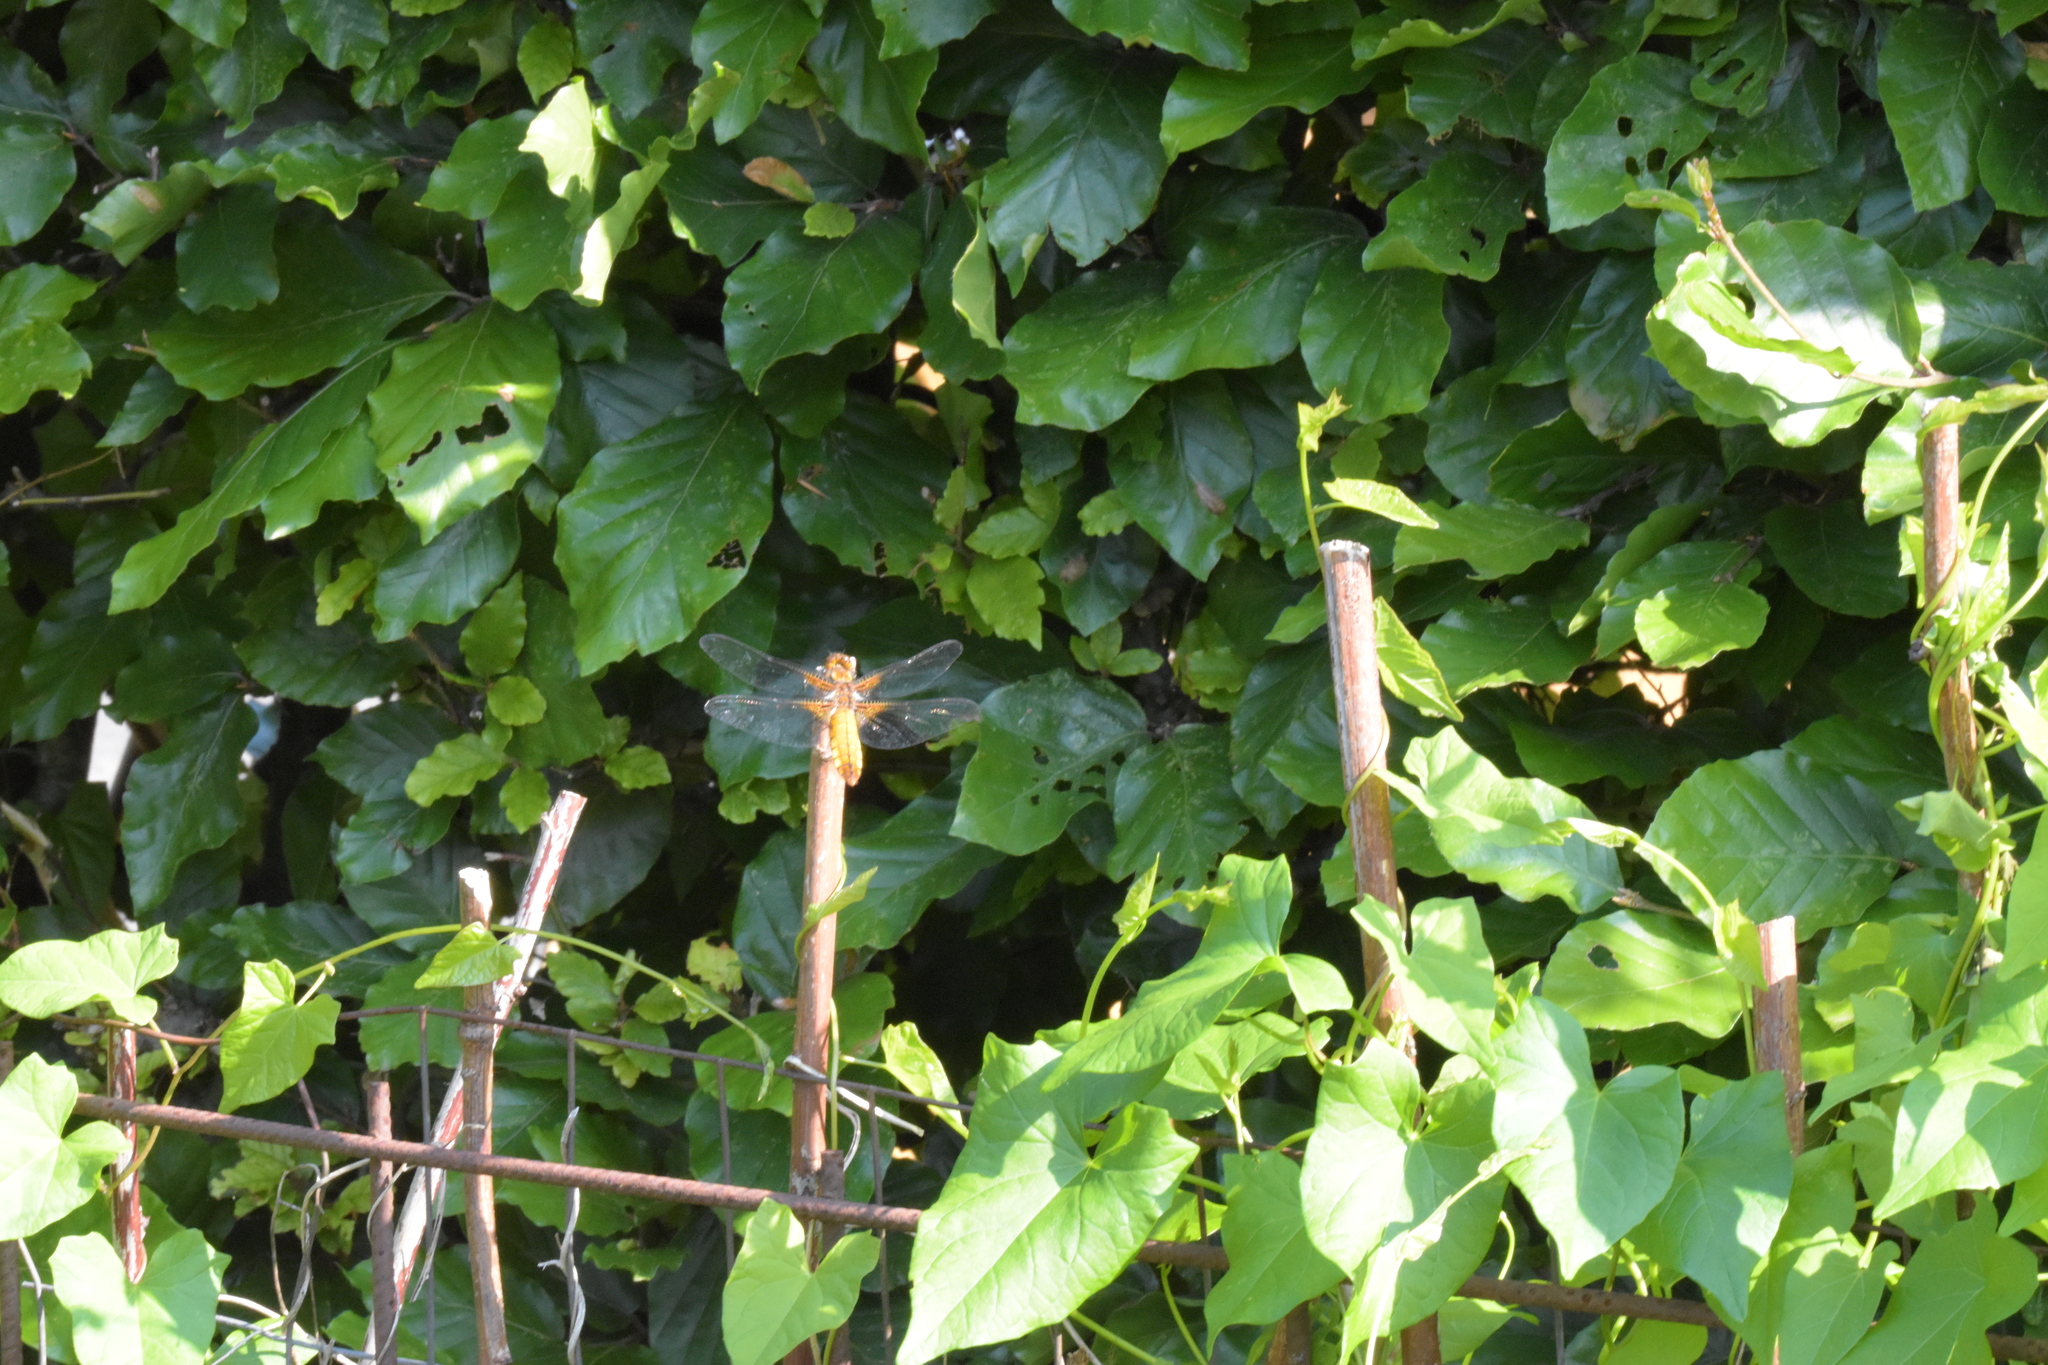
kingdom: Animalia
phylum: Arthropoda
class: Insecta
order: Odonata
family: Libellulidae
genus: Libellula
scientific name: Libellula depressa
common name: Broad-bodied chaser
